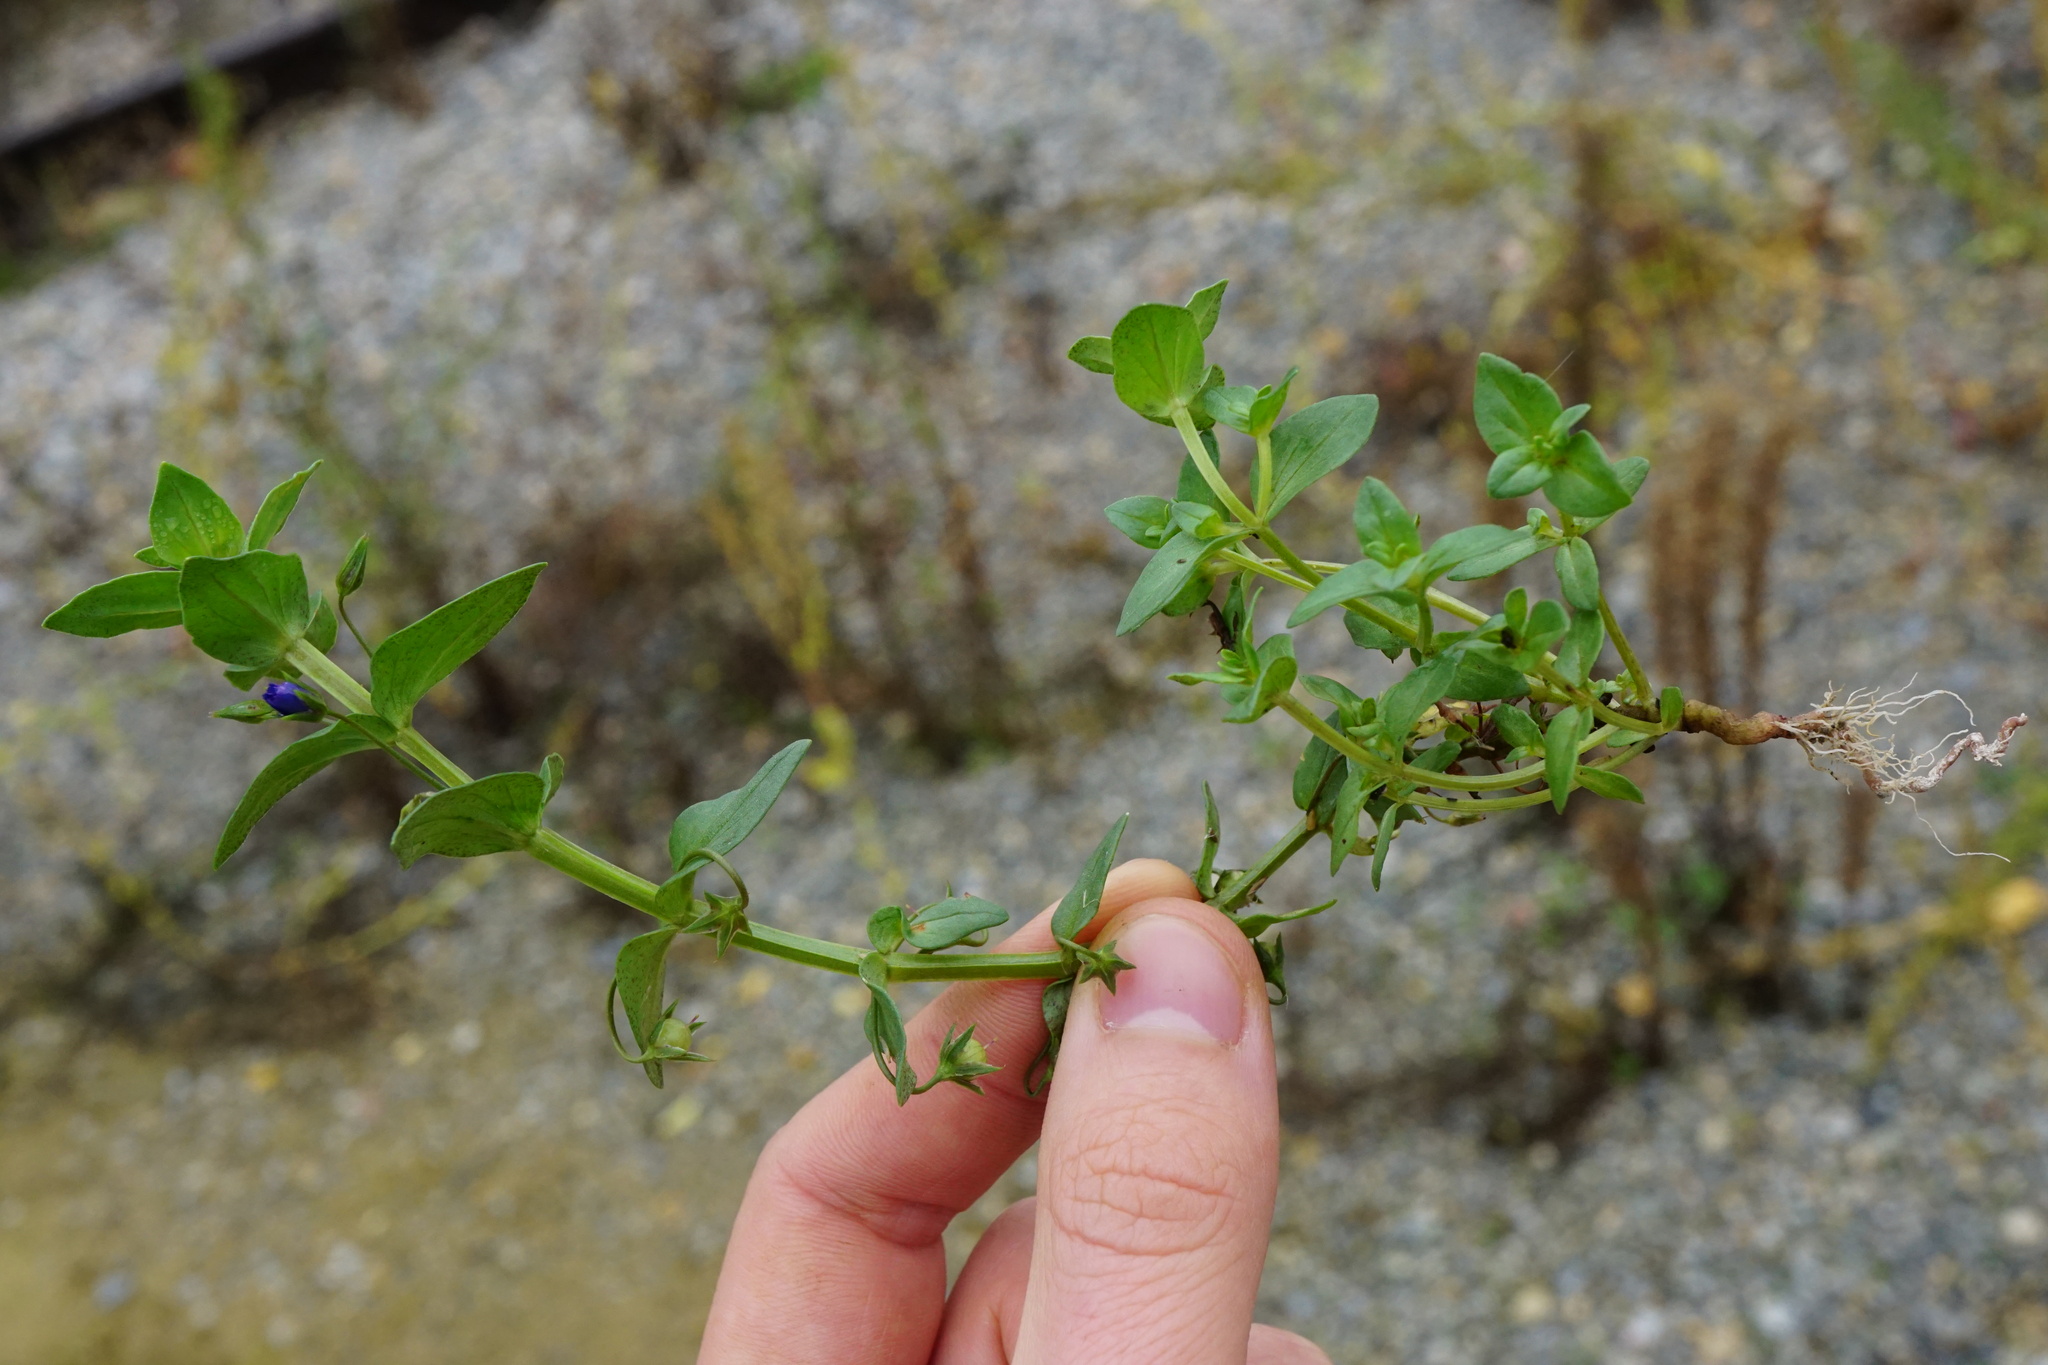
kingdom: Plantae
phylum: Tracheophyta
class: Magnoliopsida
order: Ericales
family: Primulaceae
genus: Lysimachia
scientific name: Lysimachia foemina
